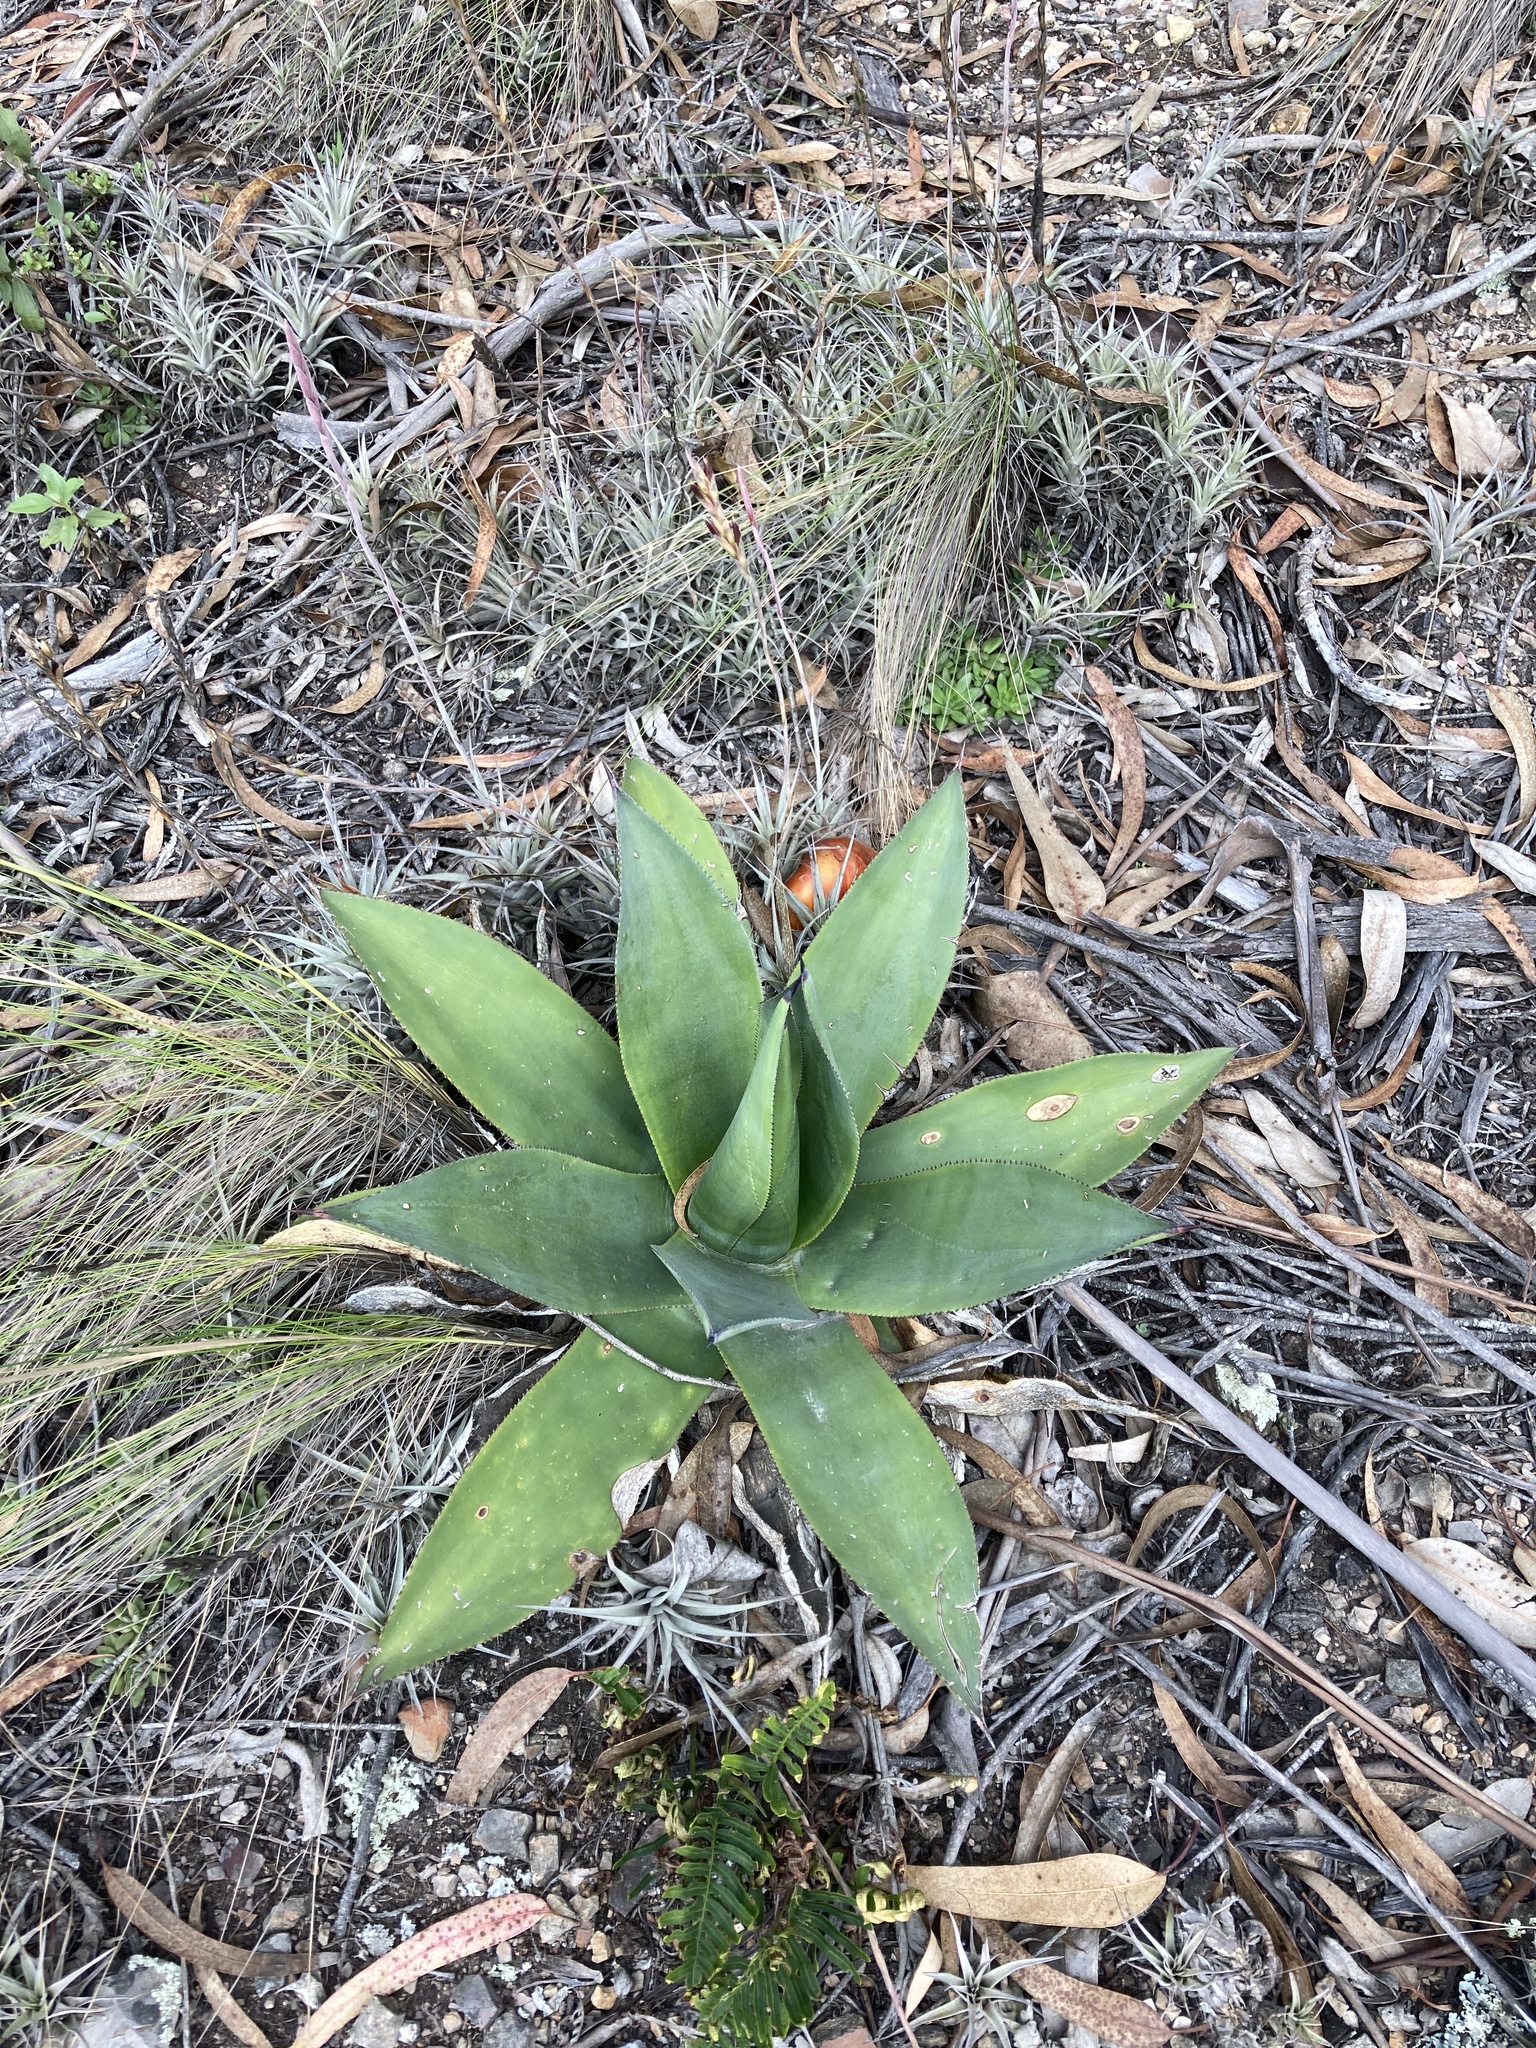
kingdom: Plantae
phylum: Tracheophyta
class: Liliopsida
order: Asparagales
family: Asparagaceae
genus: Agave
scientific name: Agave sylvesteriana
